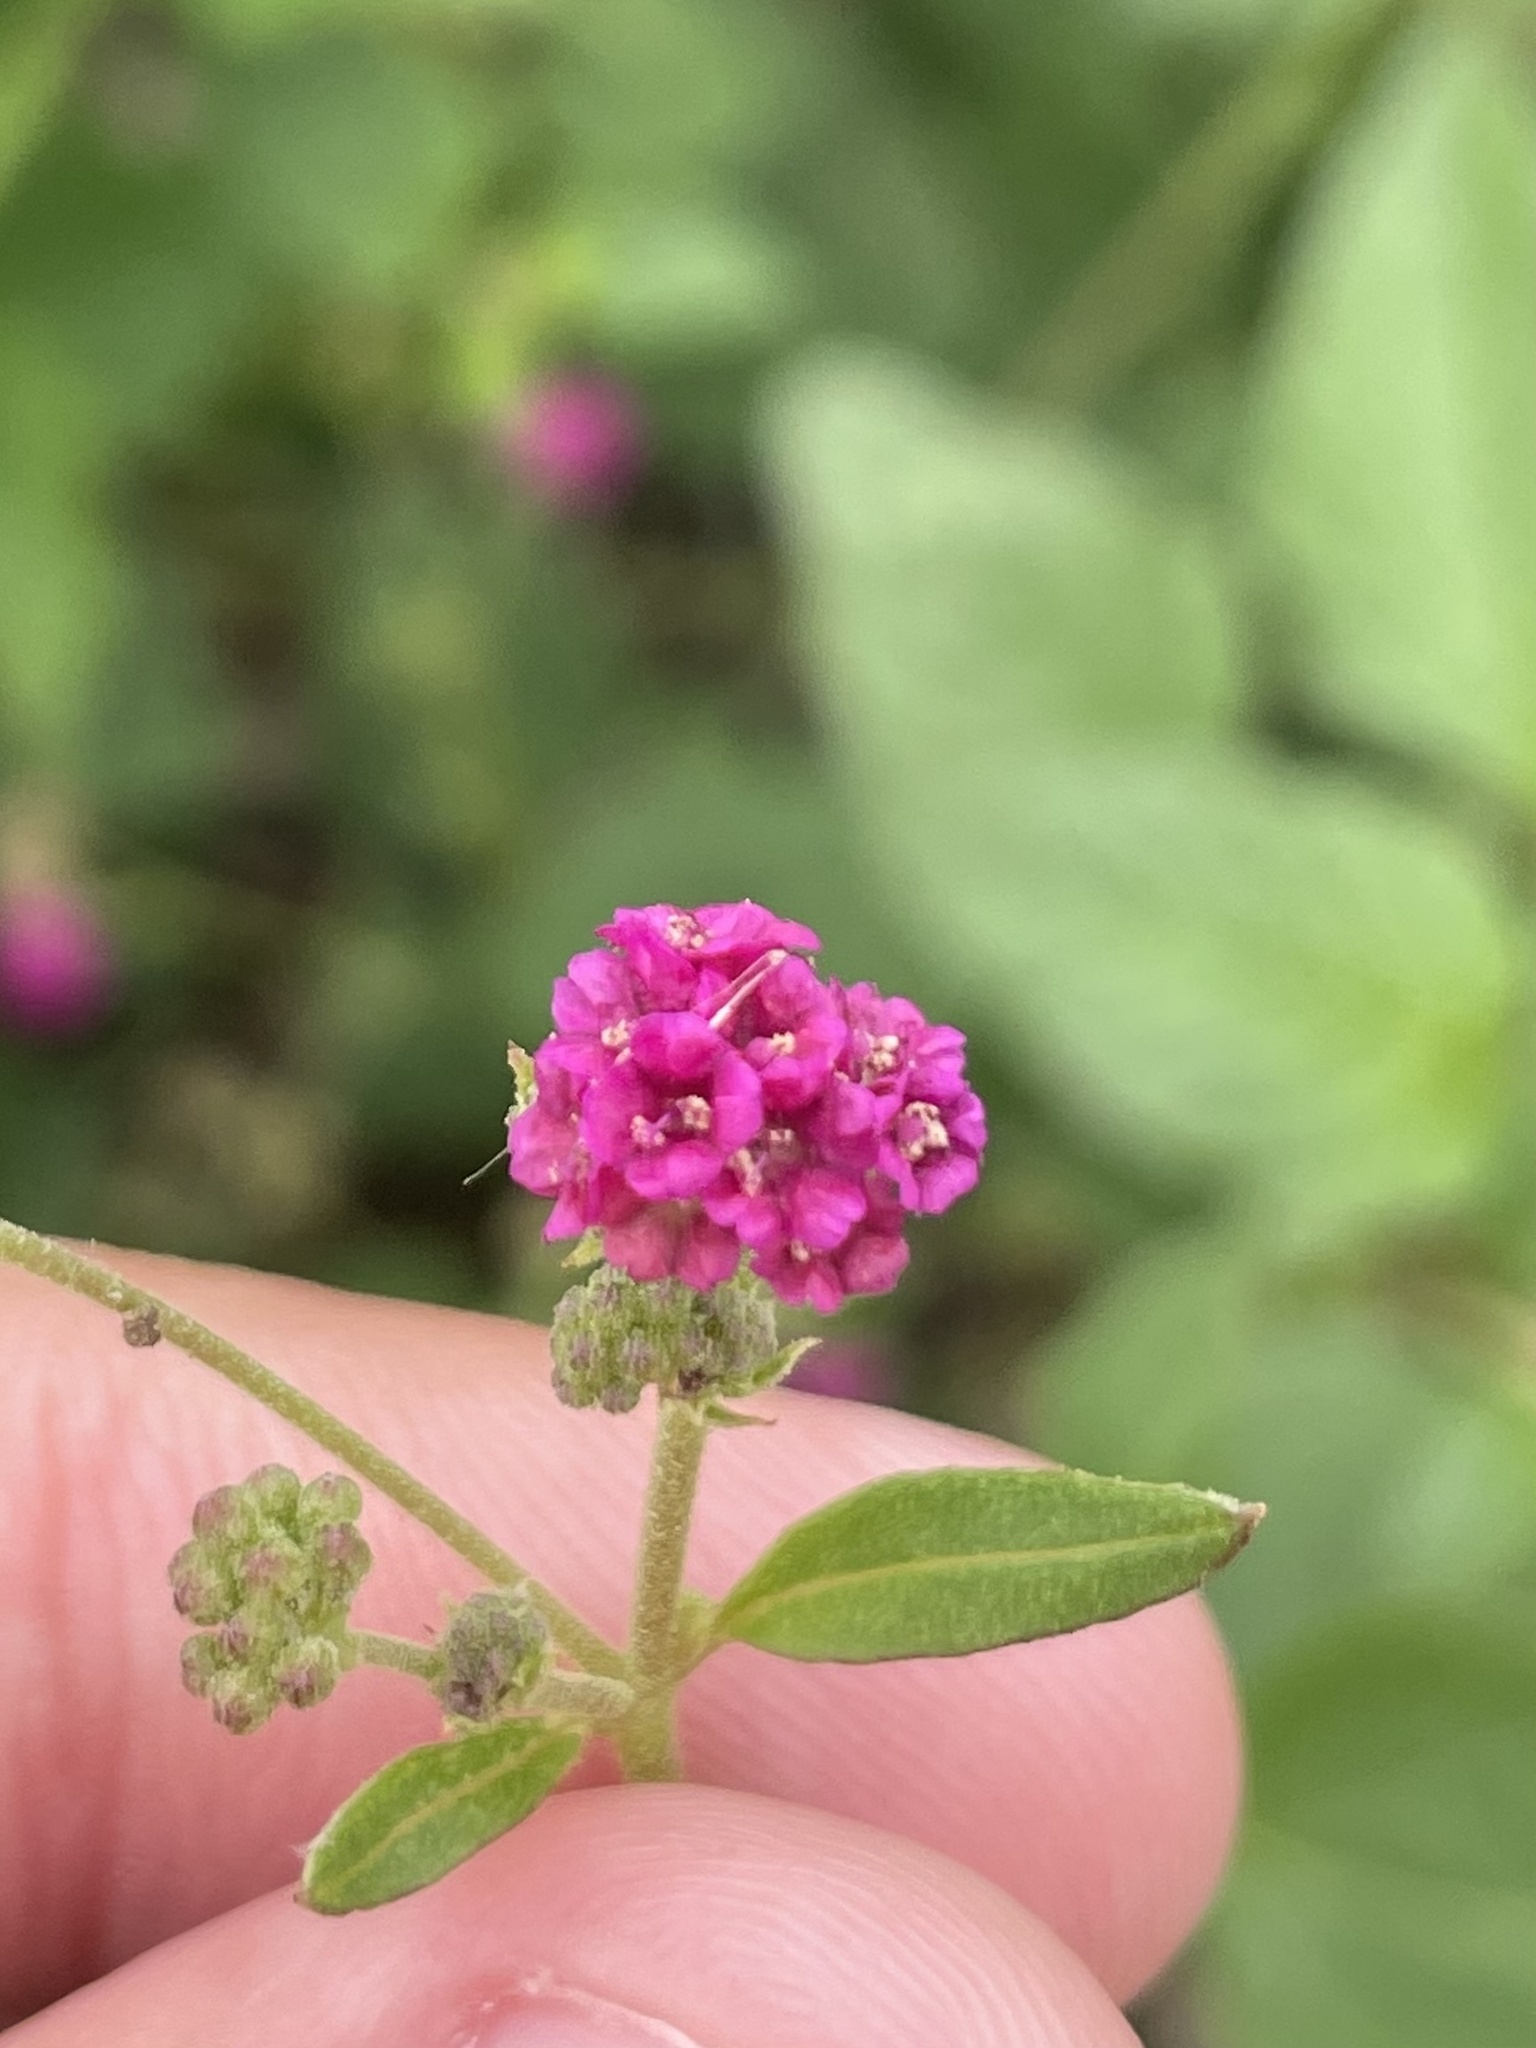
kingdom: Plantae
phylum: Tracheophyta
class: Magnoliopsida
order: Caryophyllales
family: Nyctaginaceae
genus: Boerhavia
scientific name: Boerhavia coccinea
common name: Scarlet spiderling
